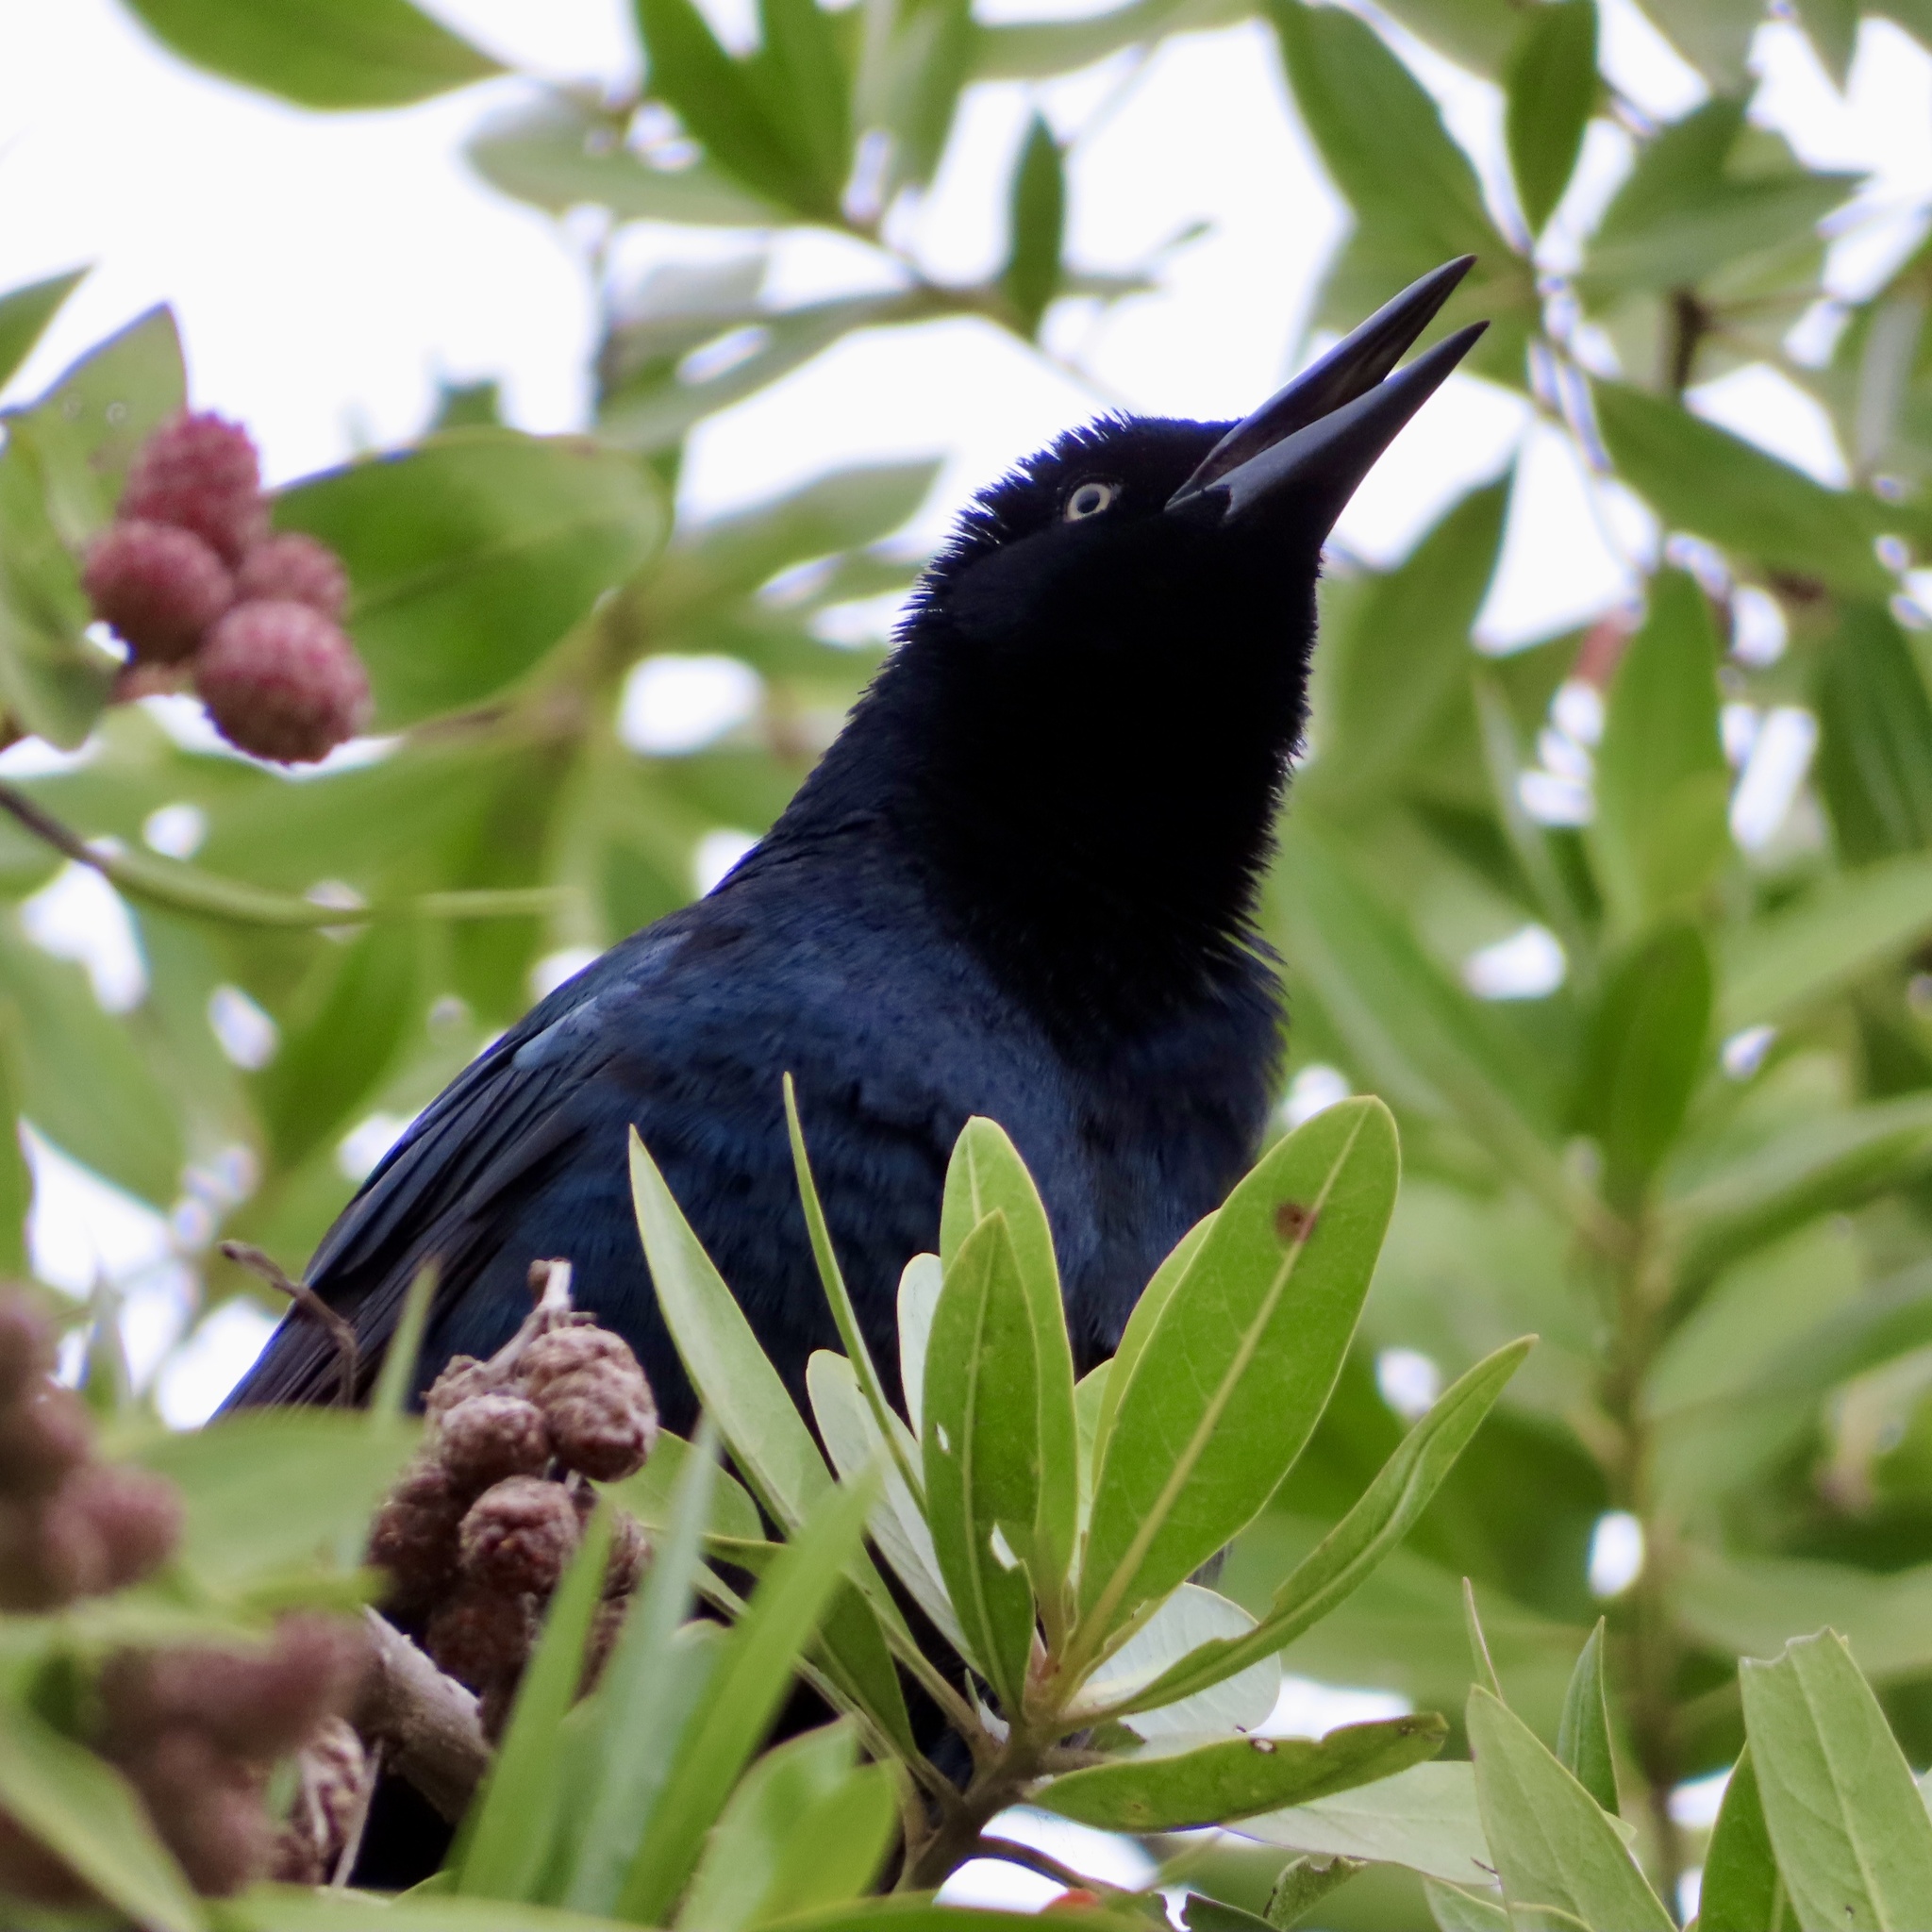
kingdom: Animalia
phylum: Chordata
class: Aves
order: Passeriformes
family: Icteridae
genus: Quiscalus
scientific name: Quiscalus mexicanus
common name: Great-tailed grackle
